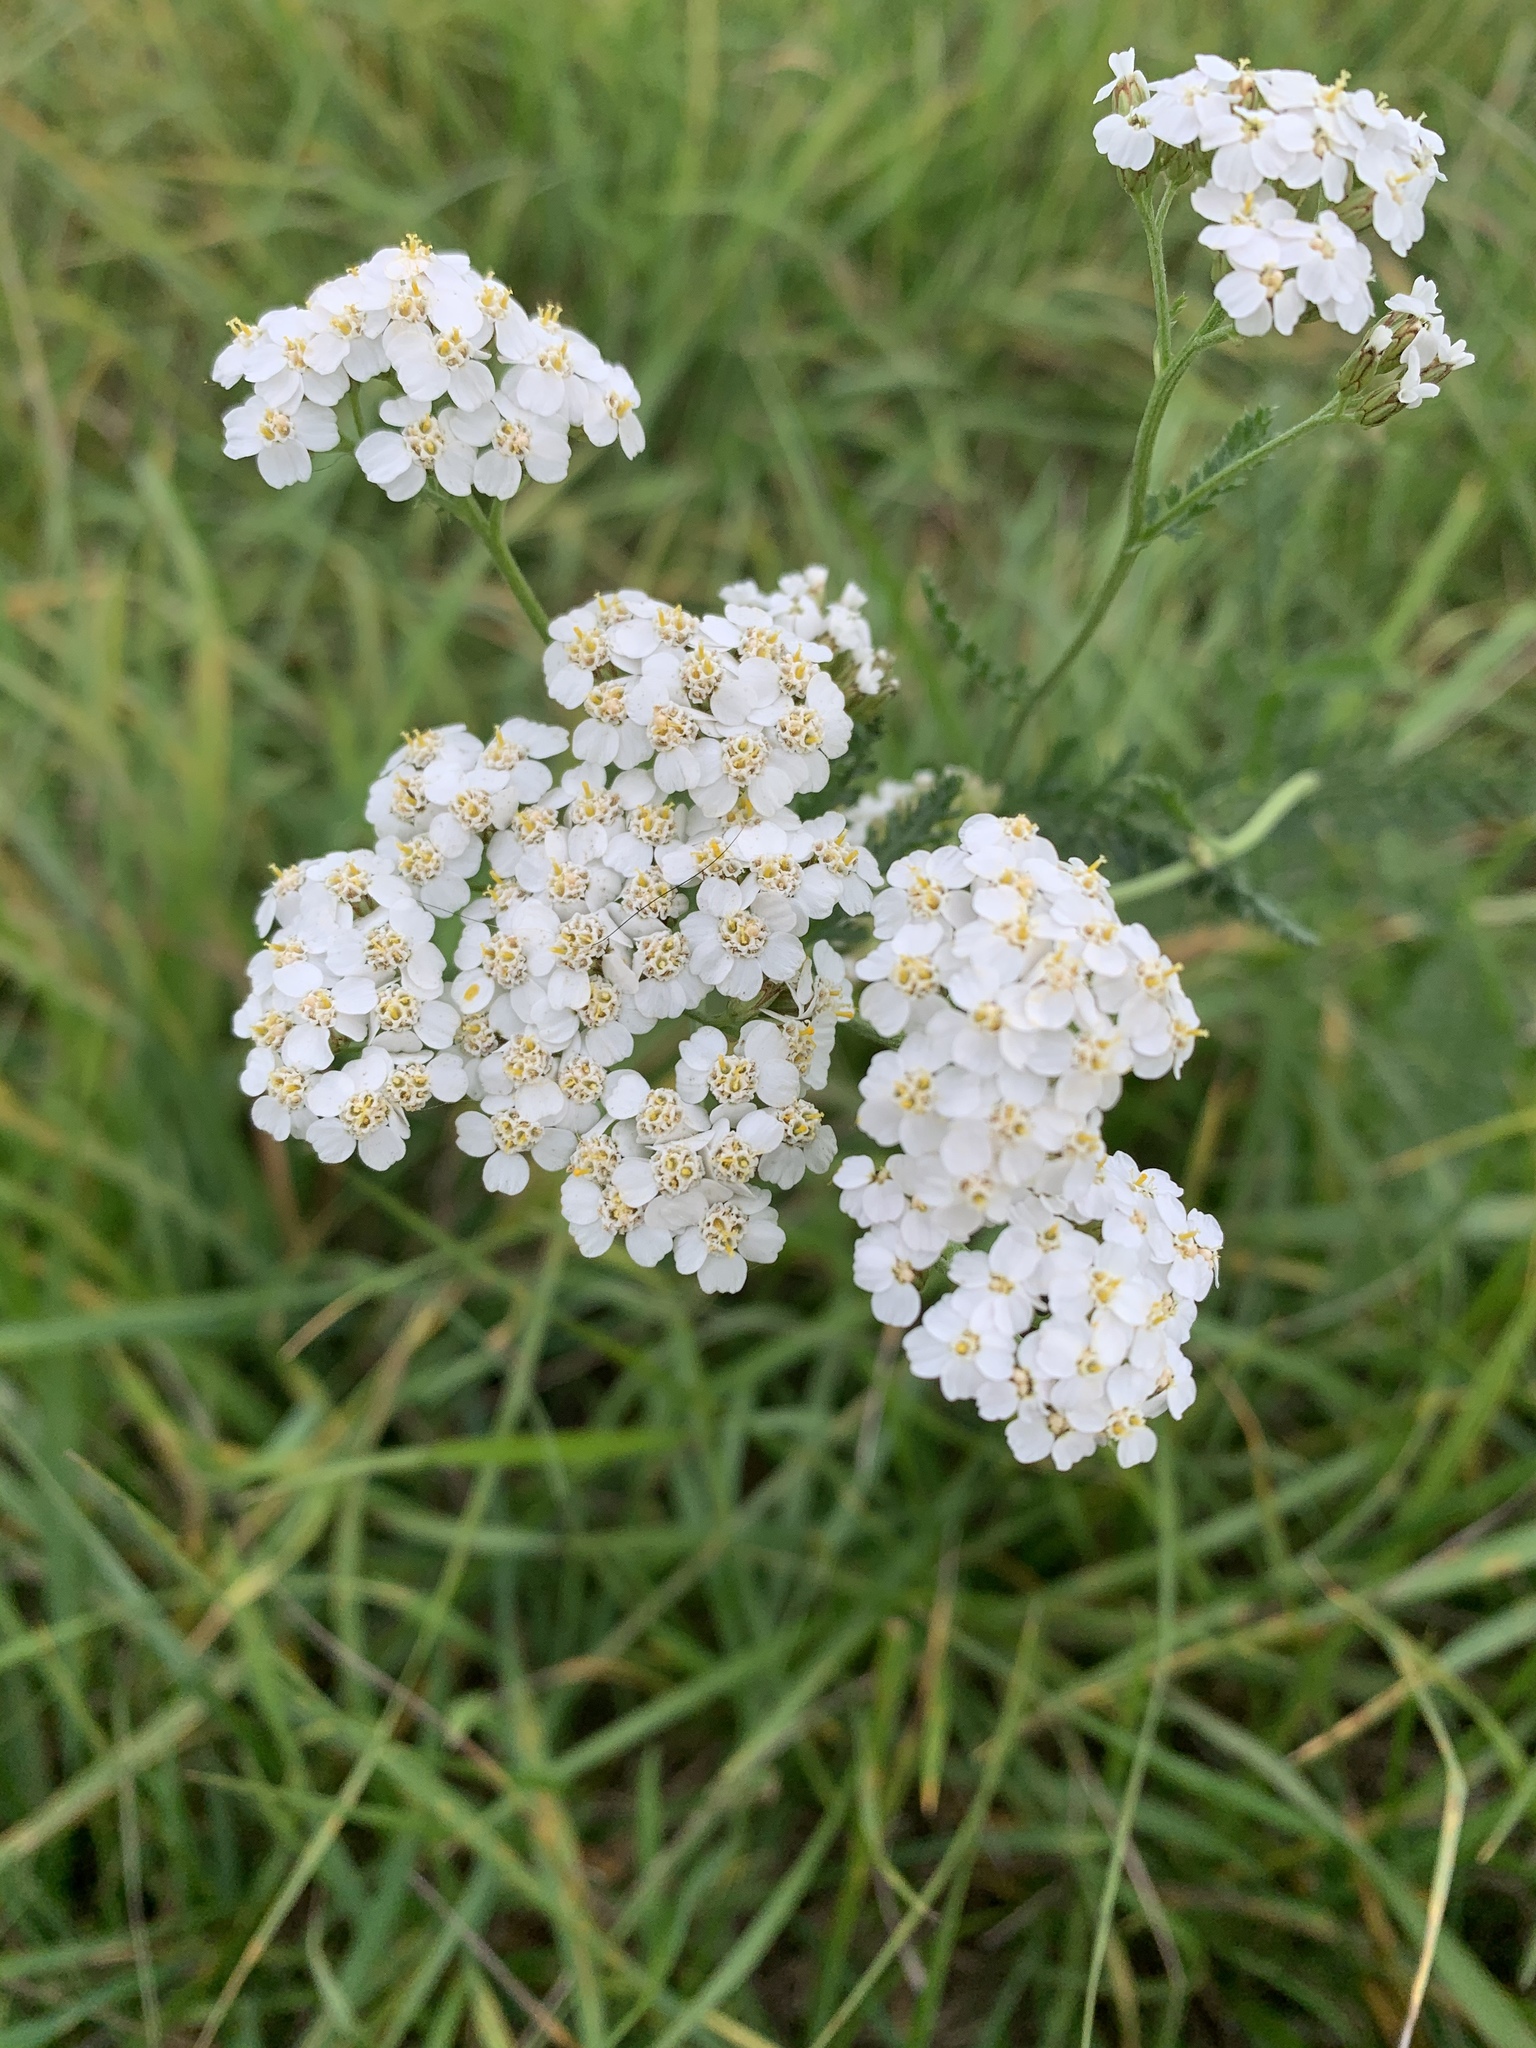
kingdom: Plantae
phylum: Tracheophyta
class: Magnoliopsida
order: Asterales
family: Asteraceae
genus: Achillea
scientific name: Achillea millefolium
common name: Yarrow
